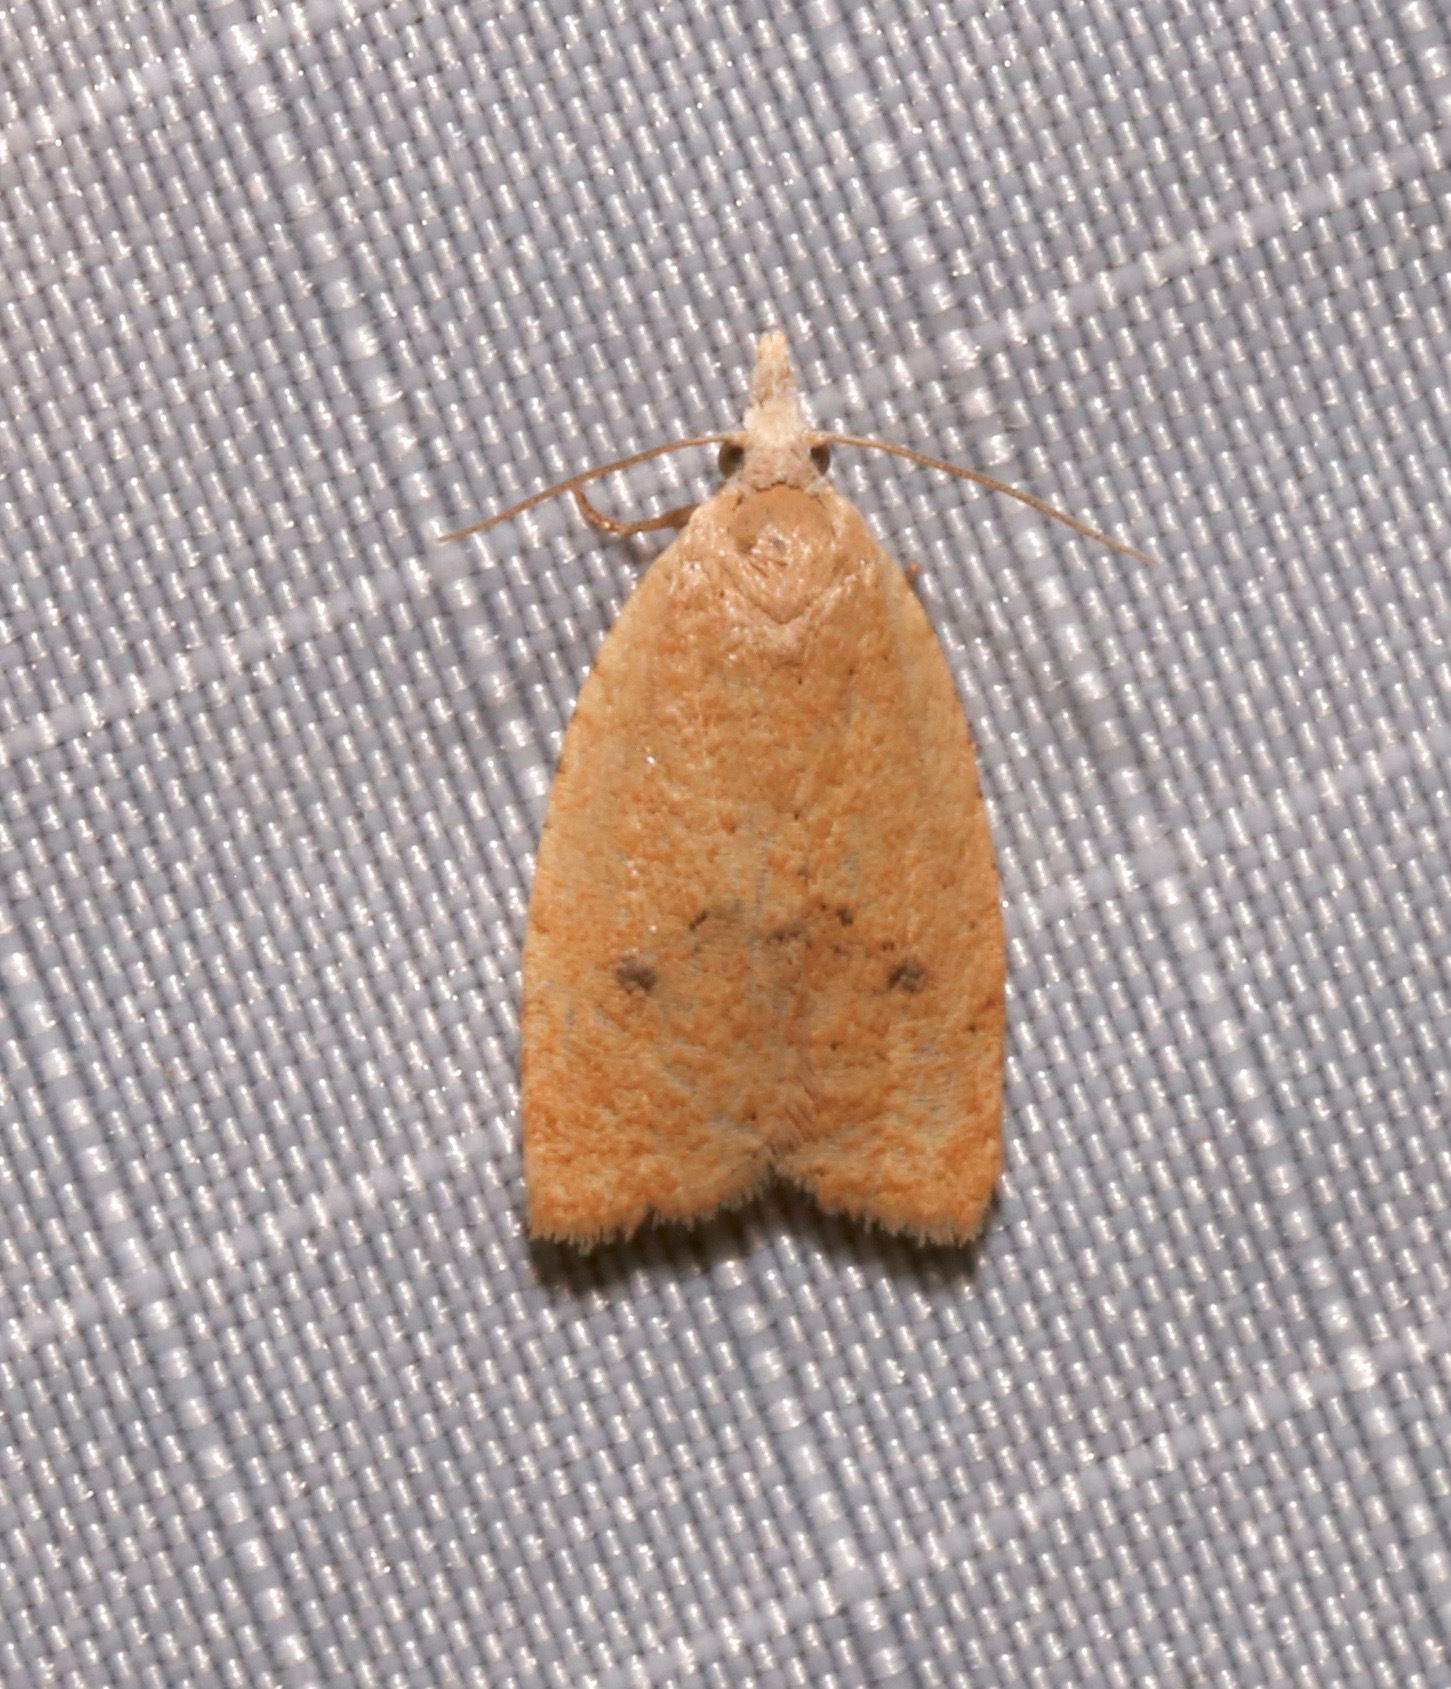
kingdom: Animalia
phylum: Arthropoda
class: Insecta
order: Lepidoptera
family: Tortricidae
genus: Sparganothoides
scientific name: Sparganothoides lentiginosana
